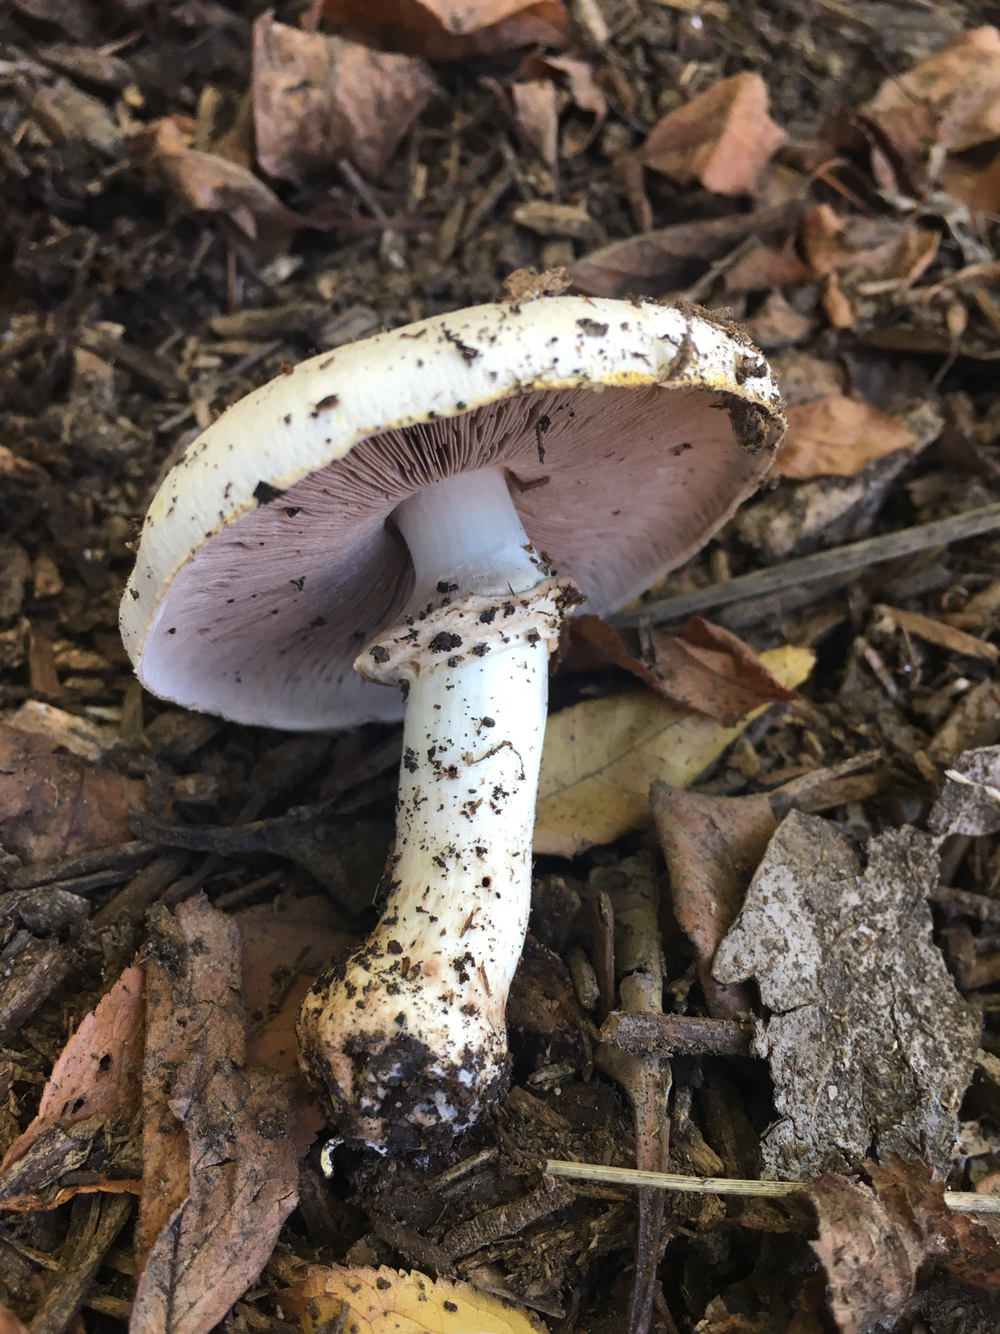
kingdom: Fungi
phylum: Basidiomycota
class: Agaricomycetes
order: Agaricales
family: Agaricaceae
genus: Agaricus
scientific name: Agaricus californicus
